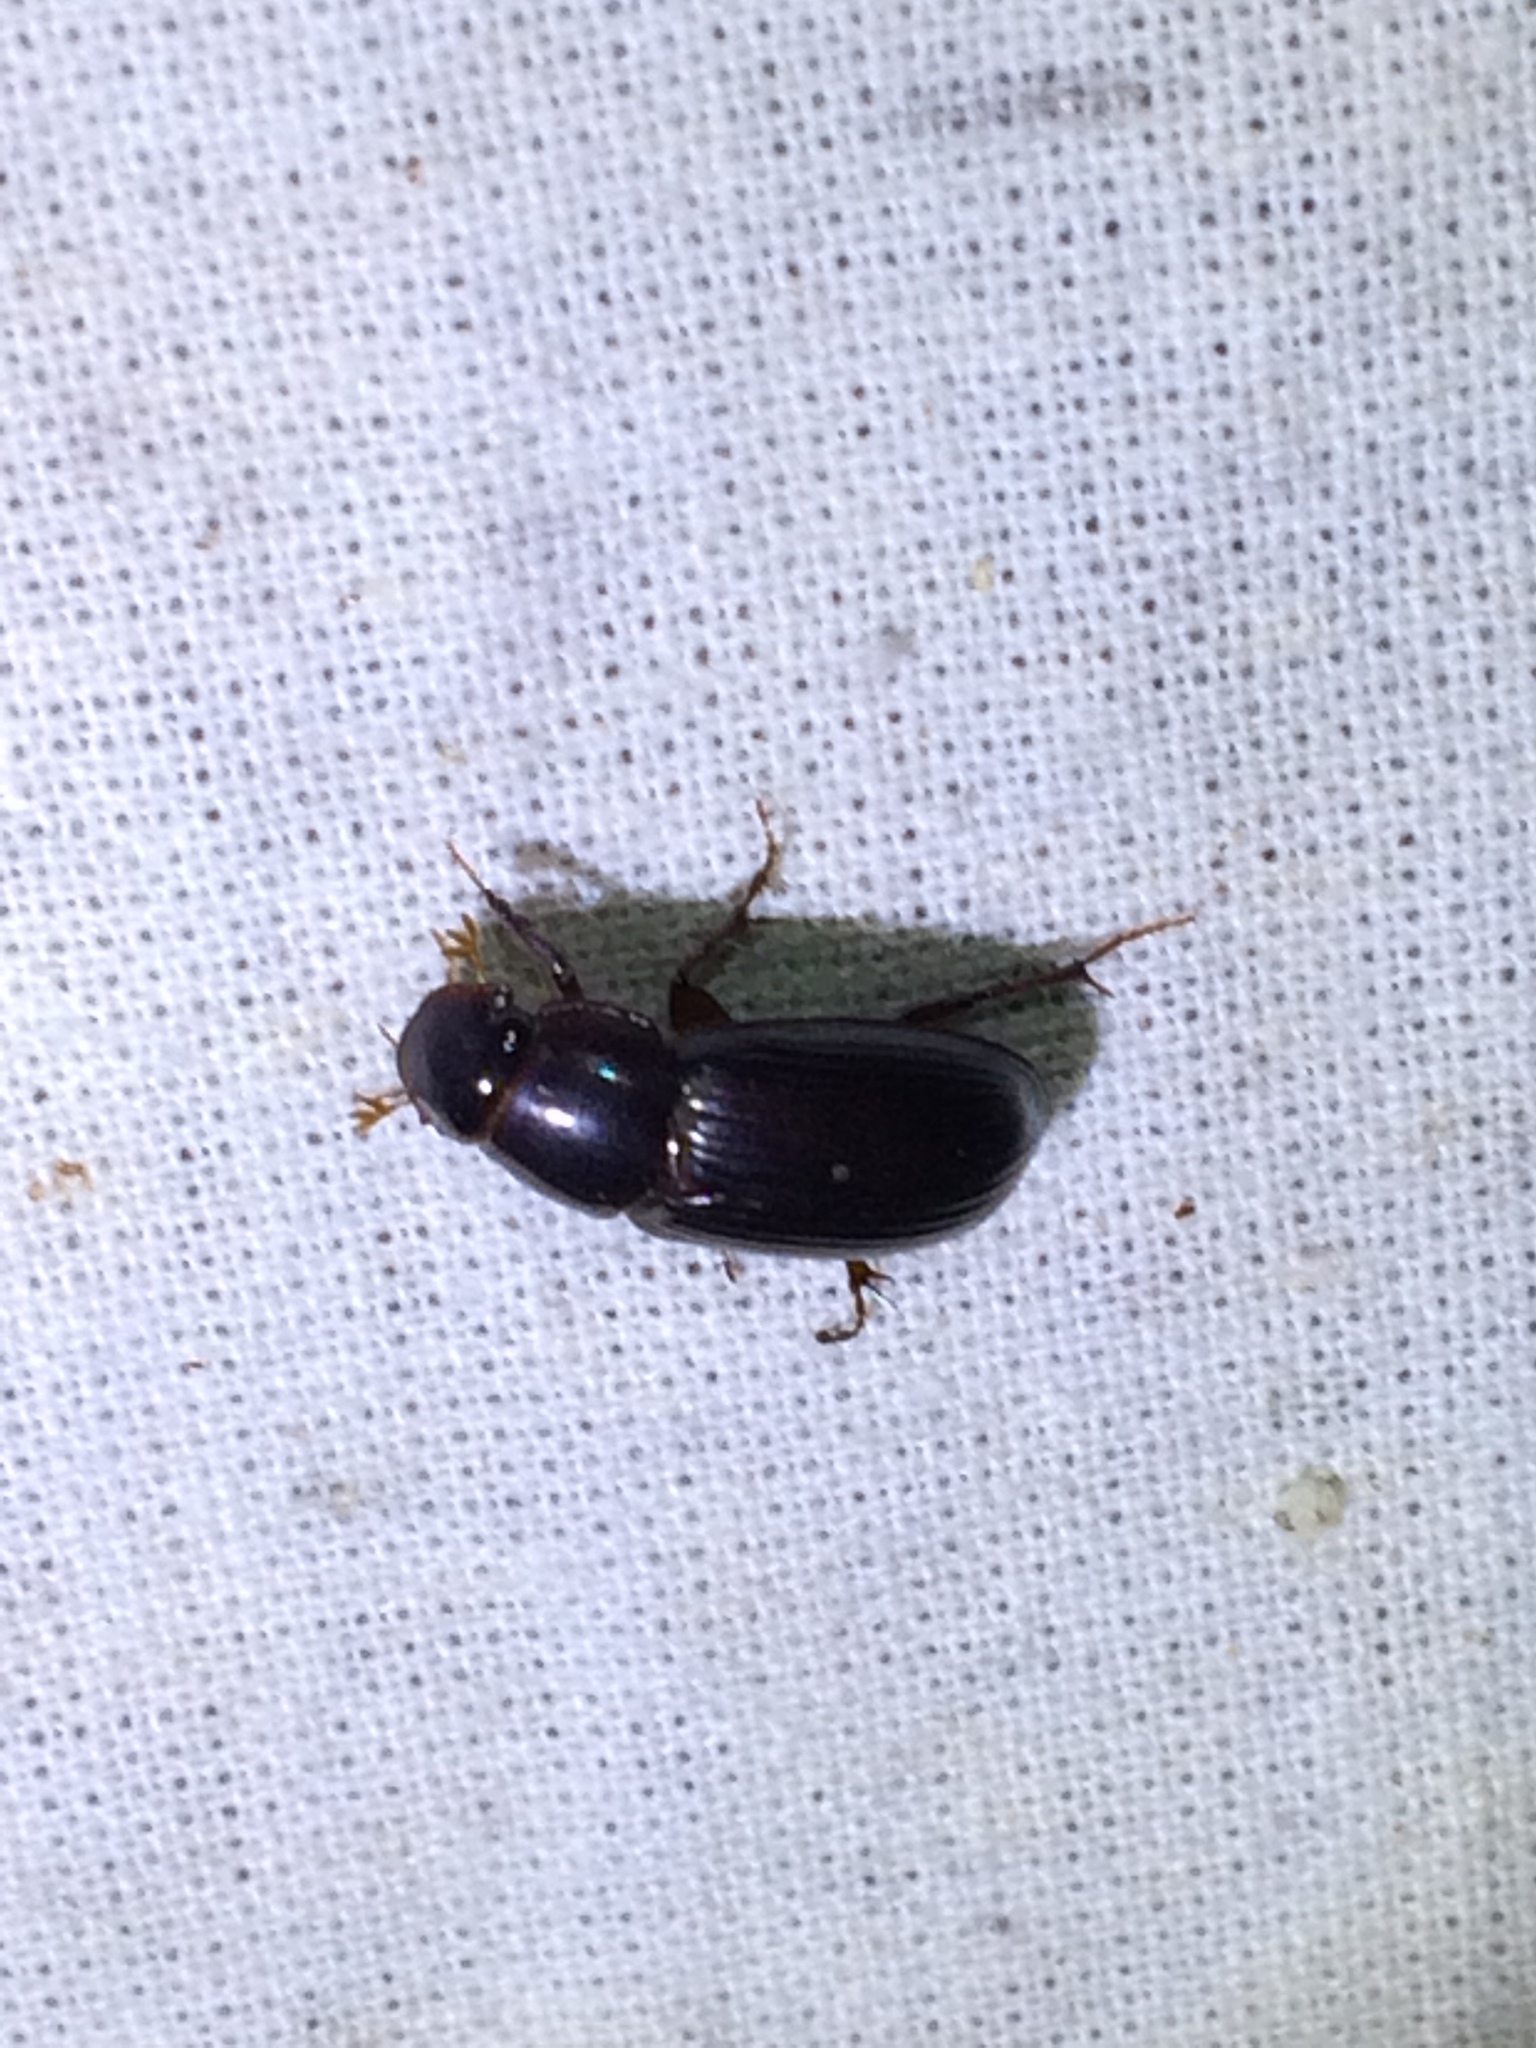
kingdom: Animalia
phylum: Arthropoda
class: Insecta
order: Coleoptera
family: Scarabaeidae
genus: Acrossus
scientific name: Acrossus rufipes
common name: Night-flying dung beetle
